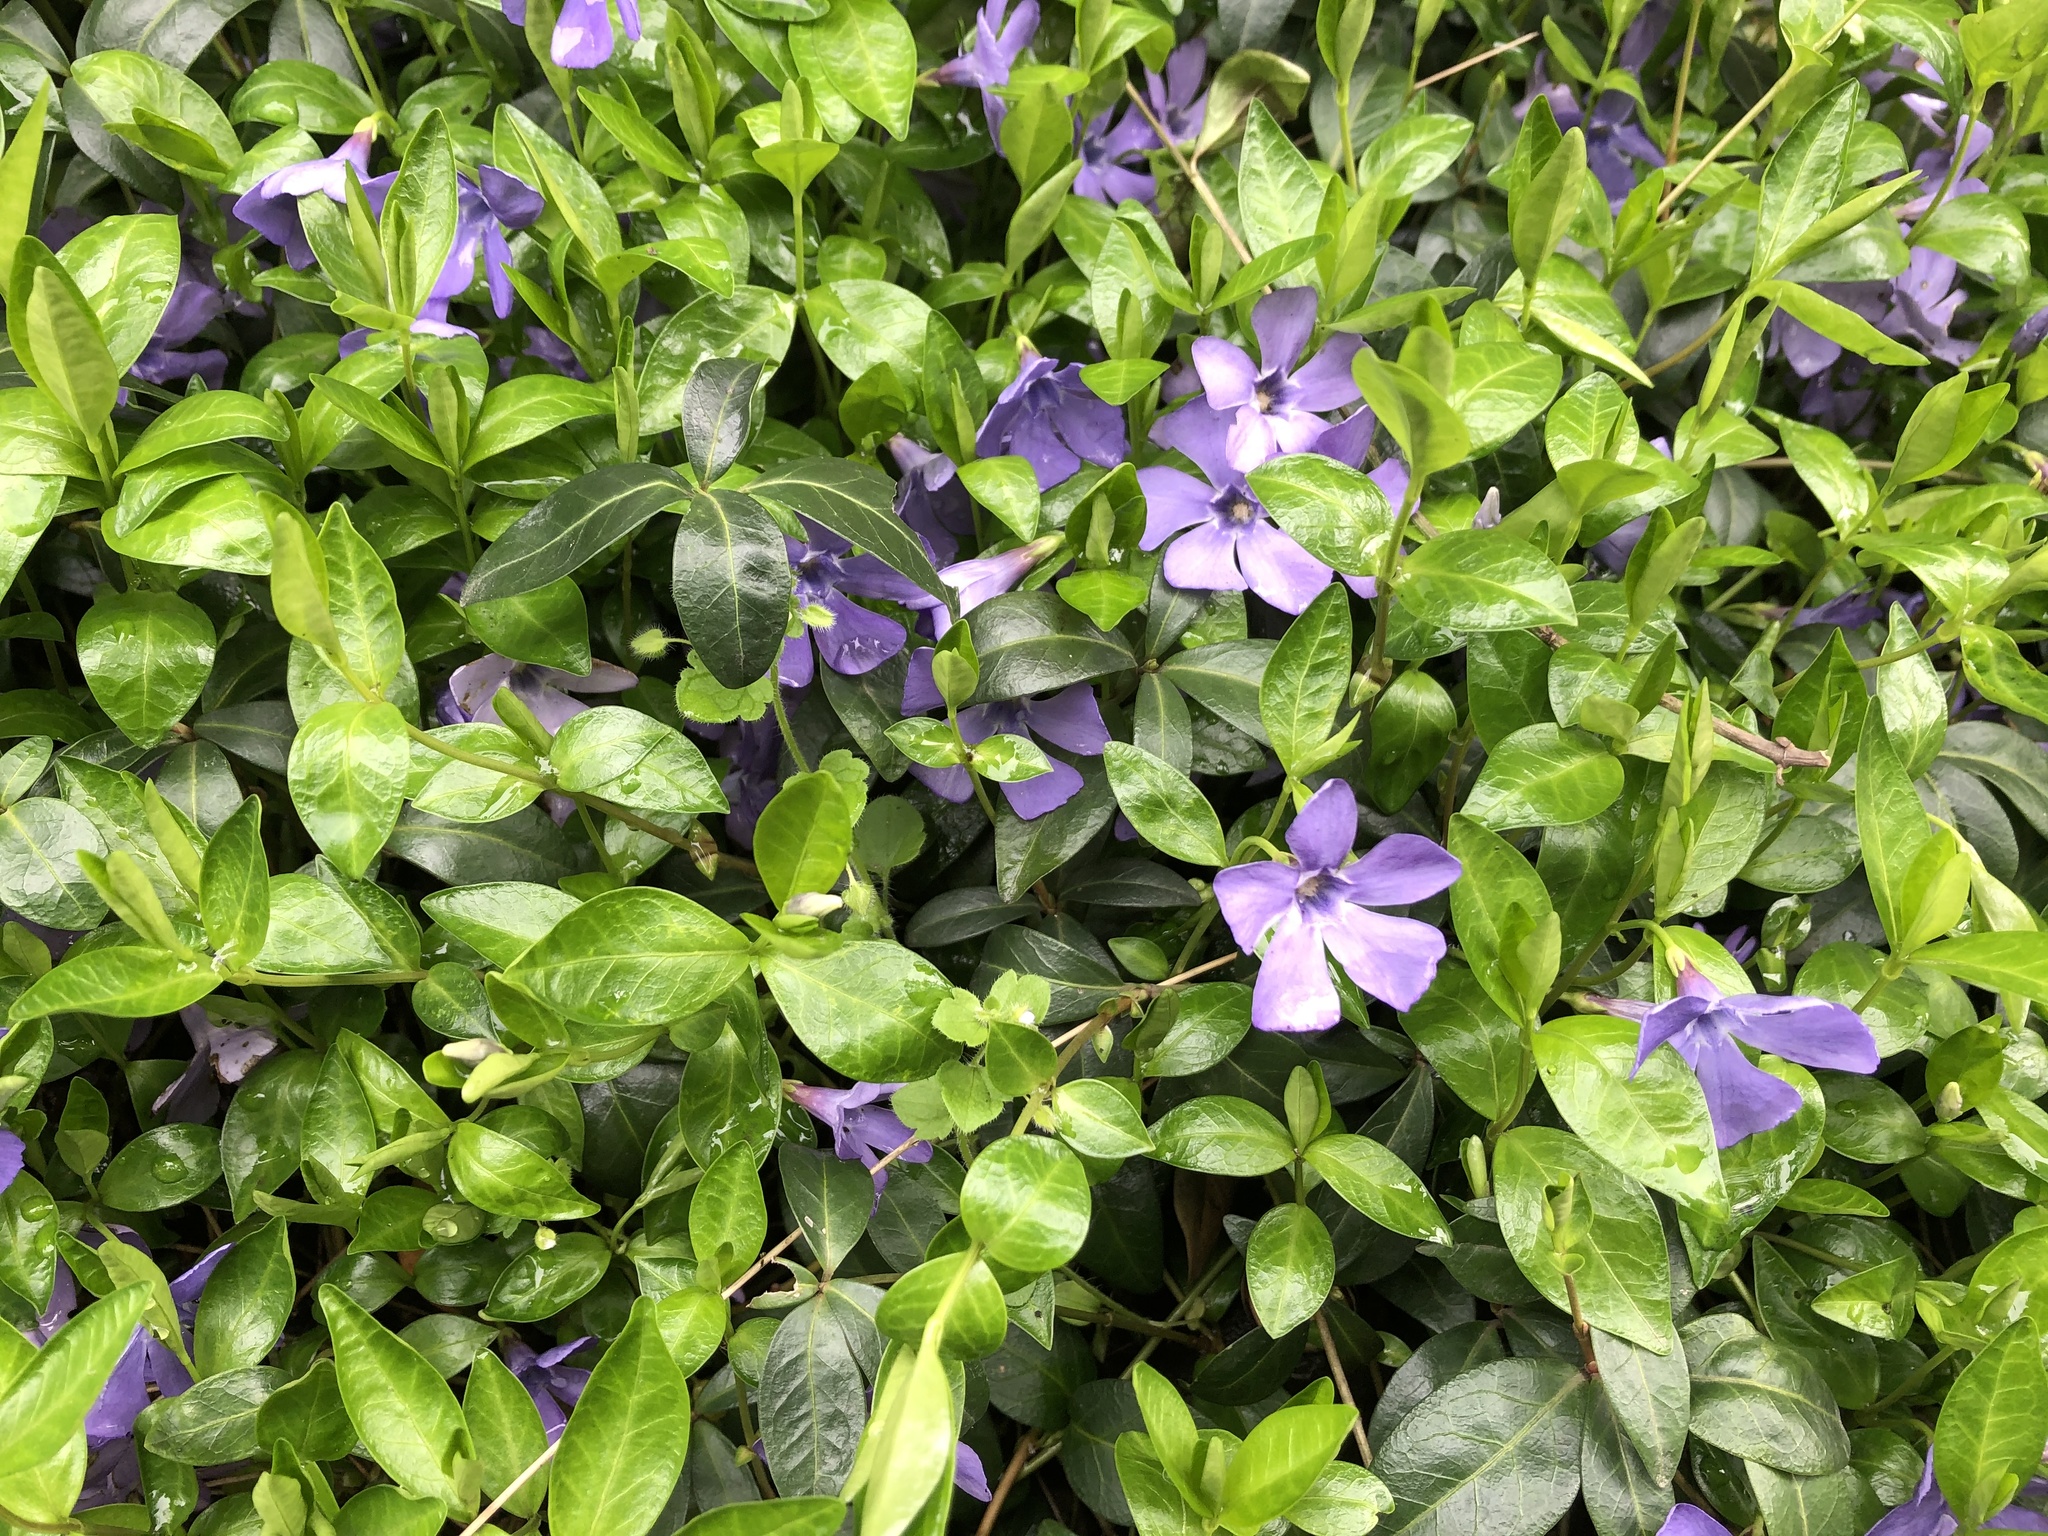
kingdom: Plantae
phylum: Tracheophyta
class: Magnoliopsida
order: Gentianales
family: Apocynaceae
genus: Vinca
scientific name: Vinca minor
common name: Lesser periwinkle
